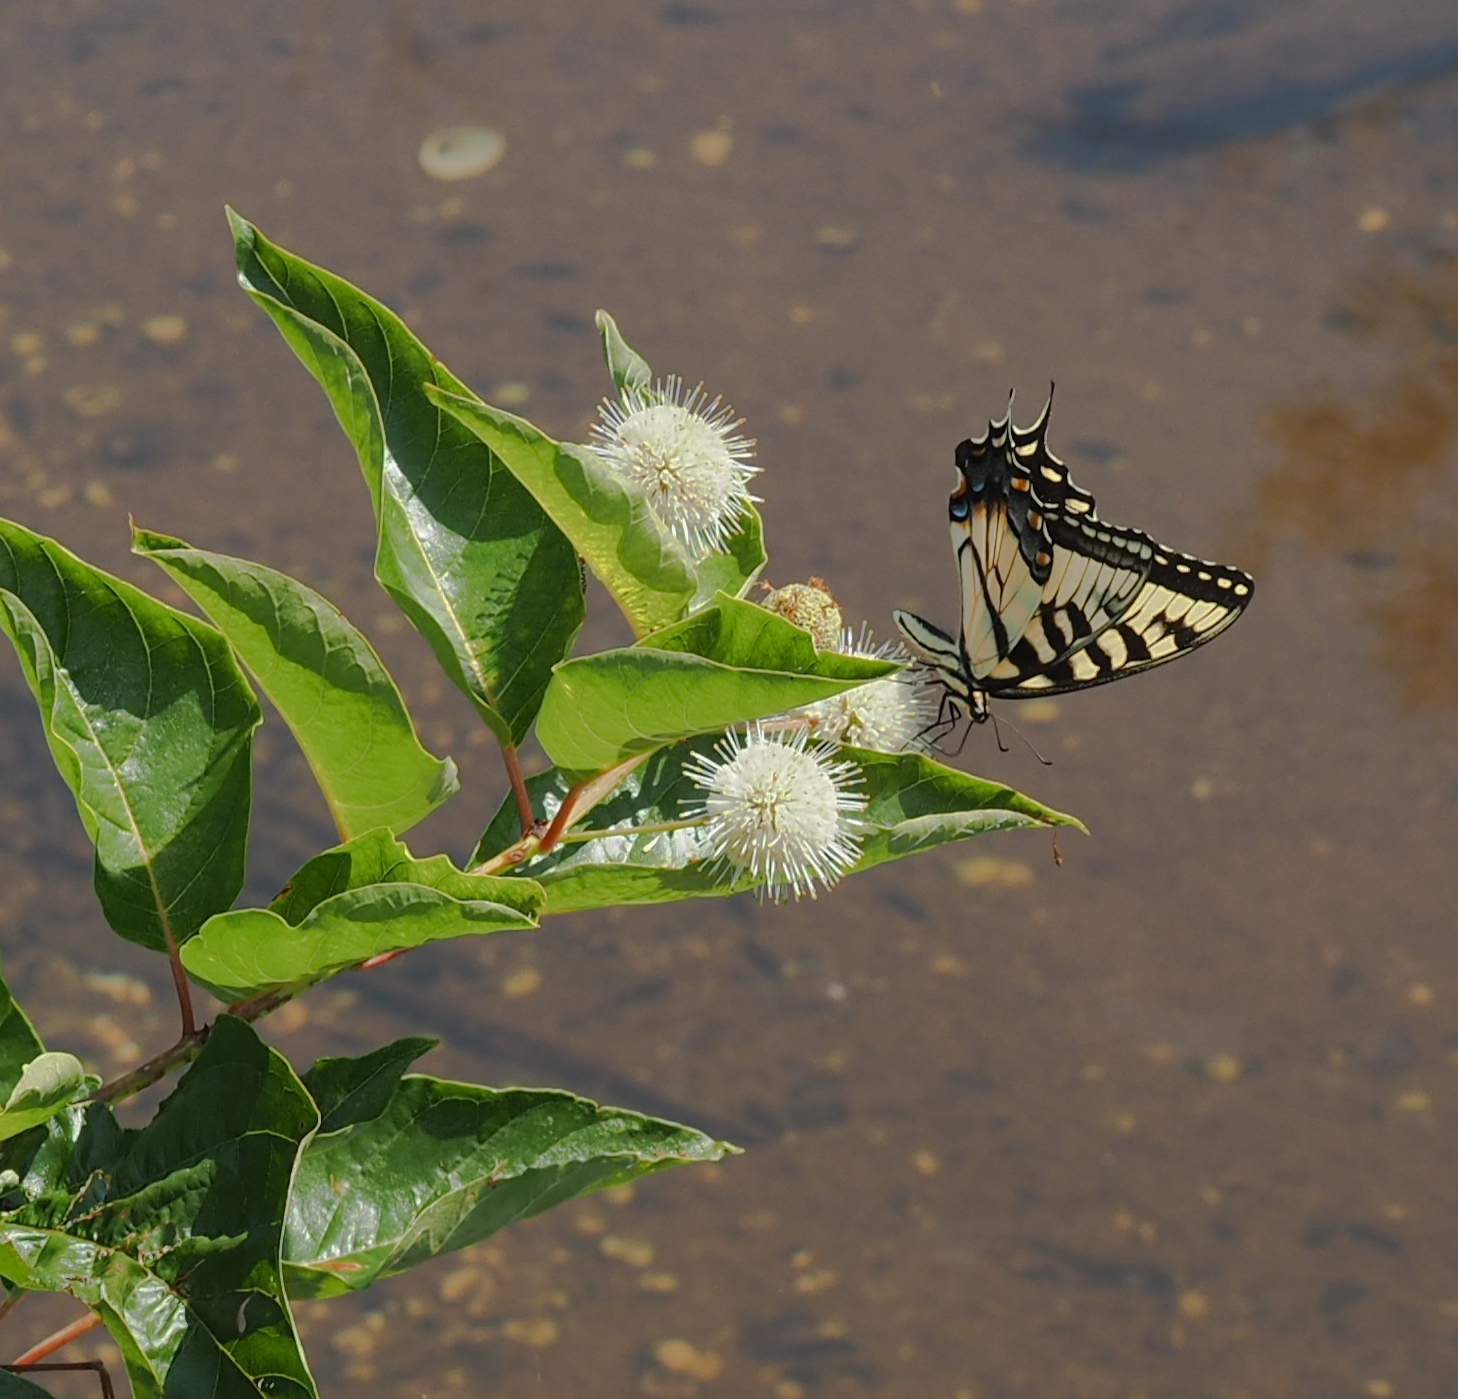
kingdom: Animalia
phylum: Arthropoda
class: Insecta
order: Lepidoptera
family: Papilionidae
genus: Papilio
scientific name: Papilio glaucus
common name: Tiger swallowtail
